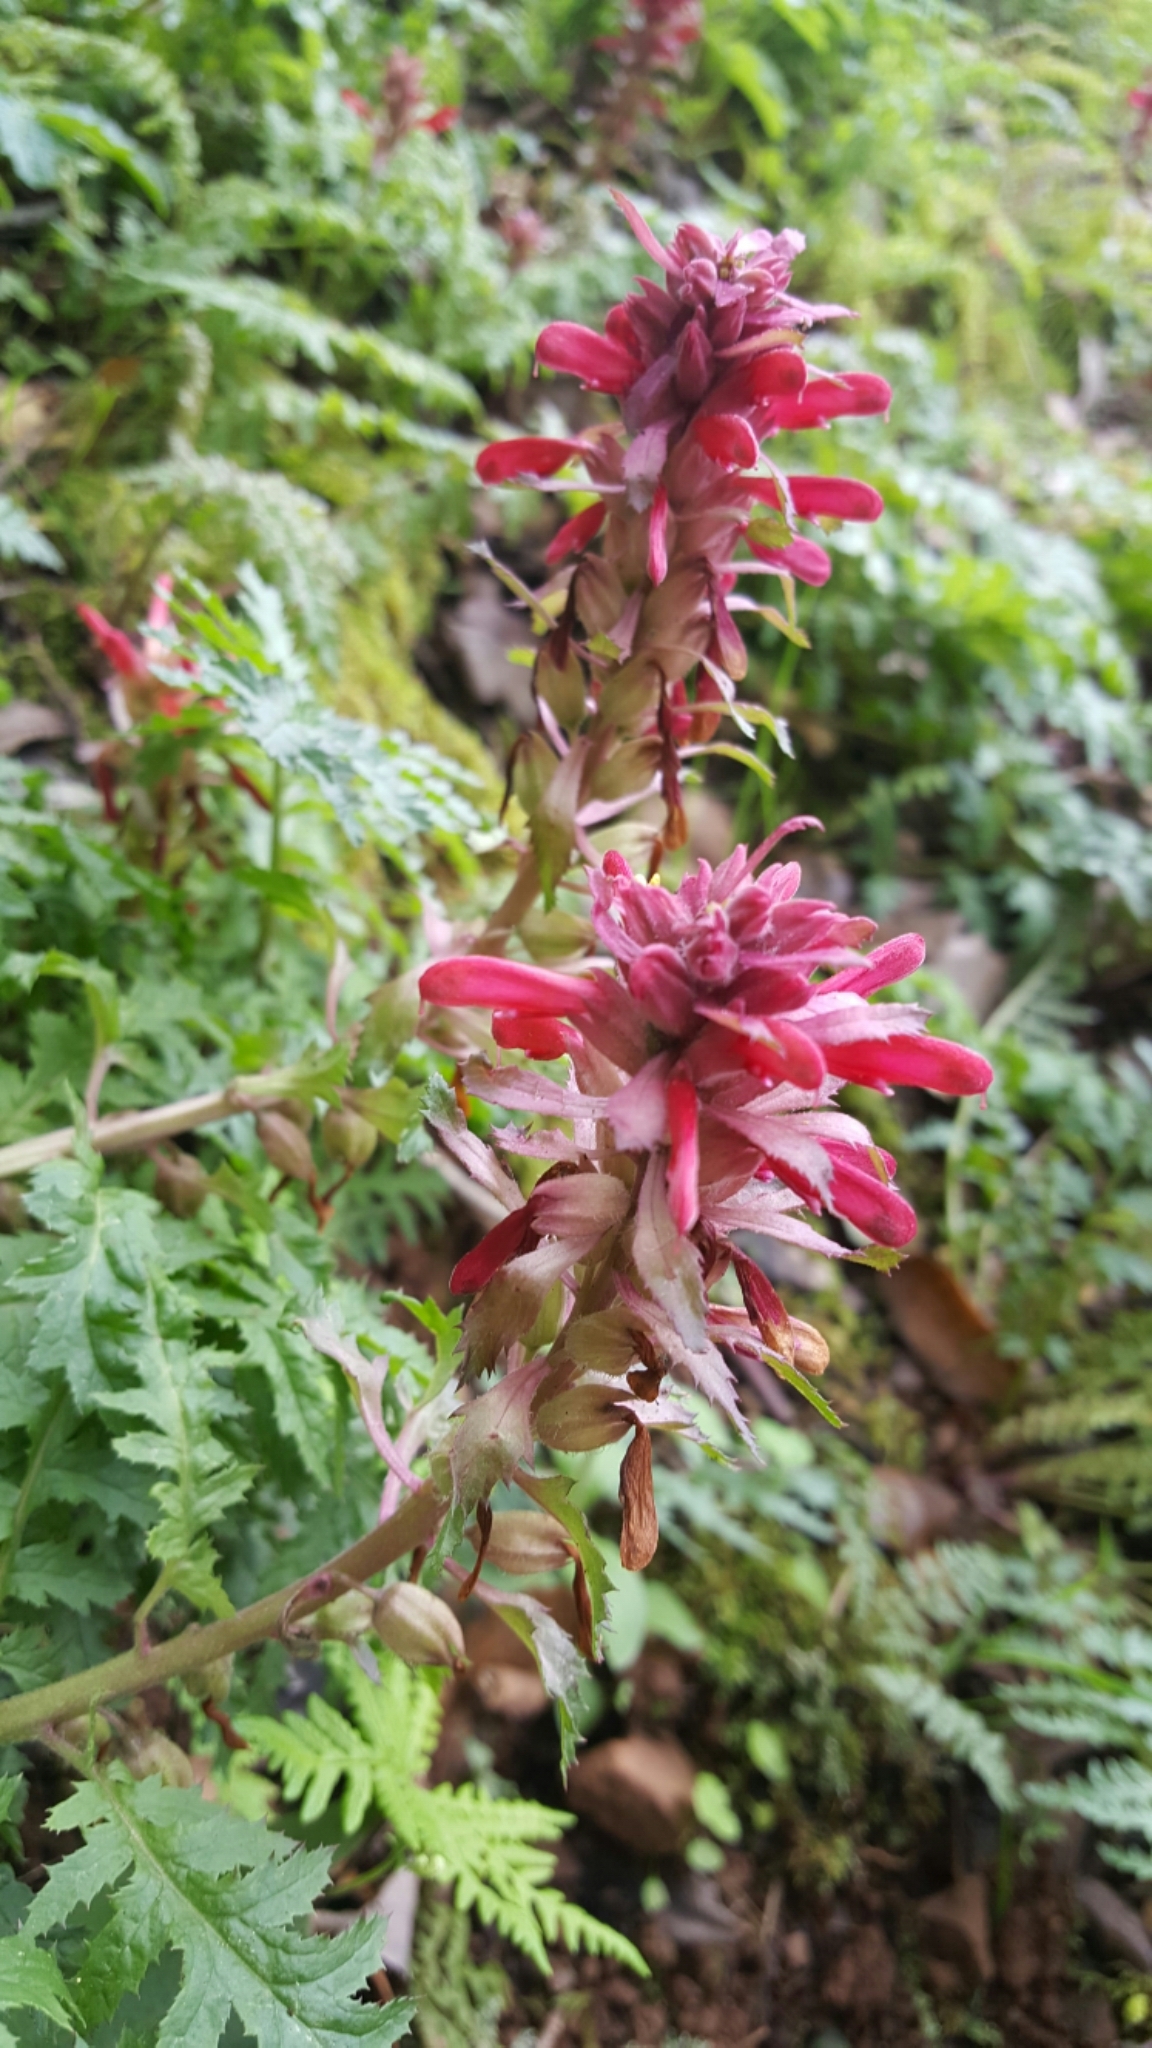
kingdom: Plantae
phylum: Tracheophyta
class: Magnoliopsida
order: Lamiales
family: Orobanchaceae
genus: Pedicularis
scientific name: Pedicularis densiflora
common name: Indian warrior
